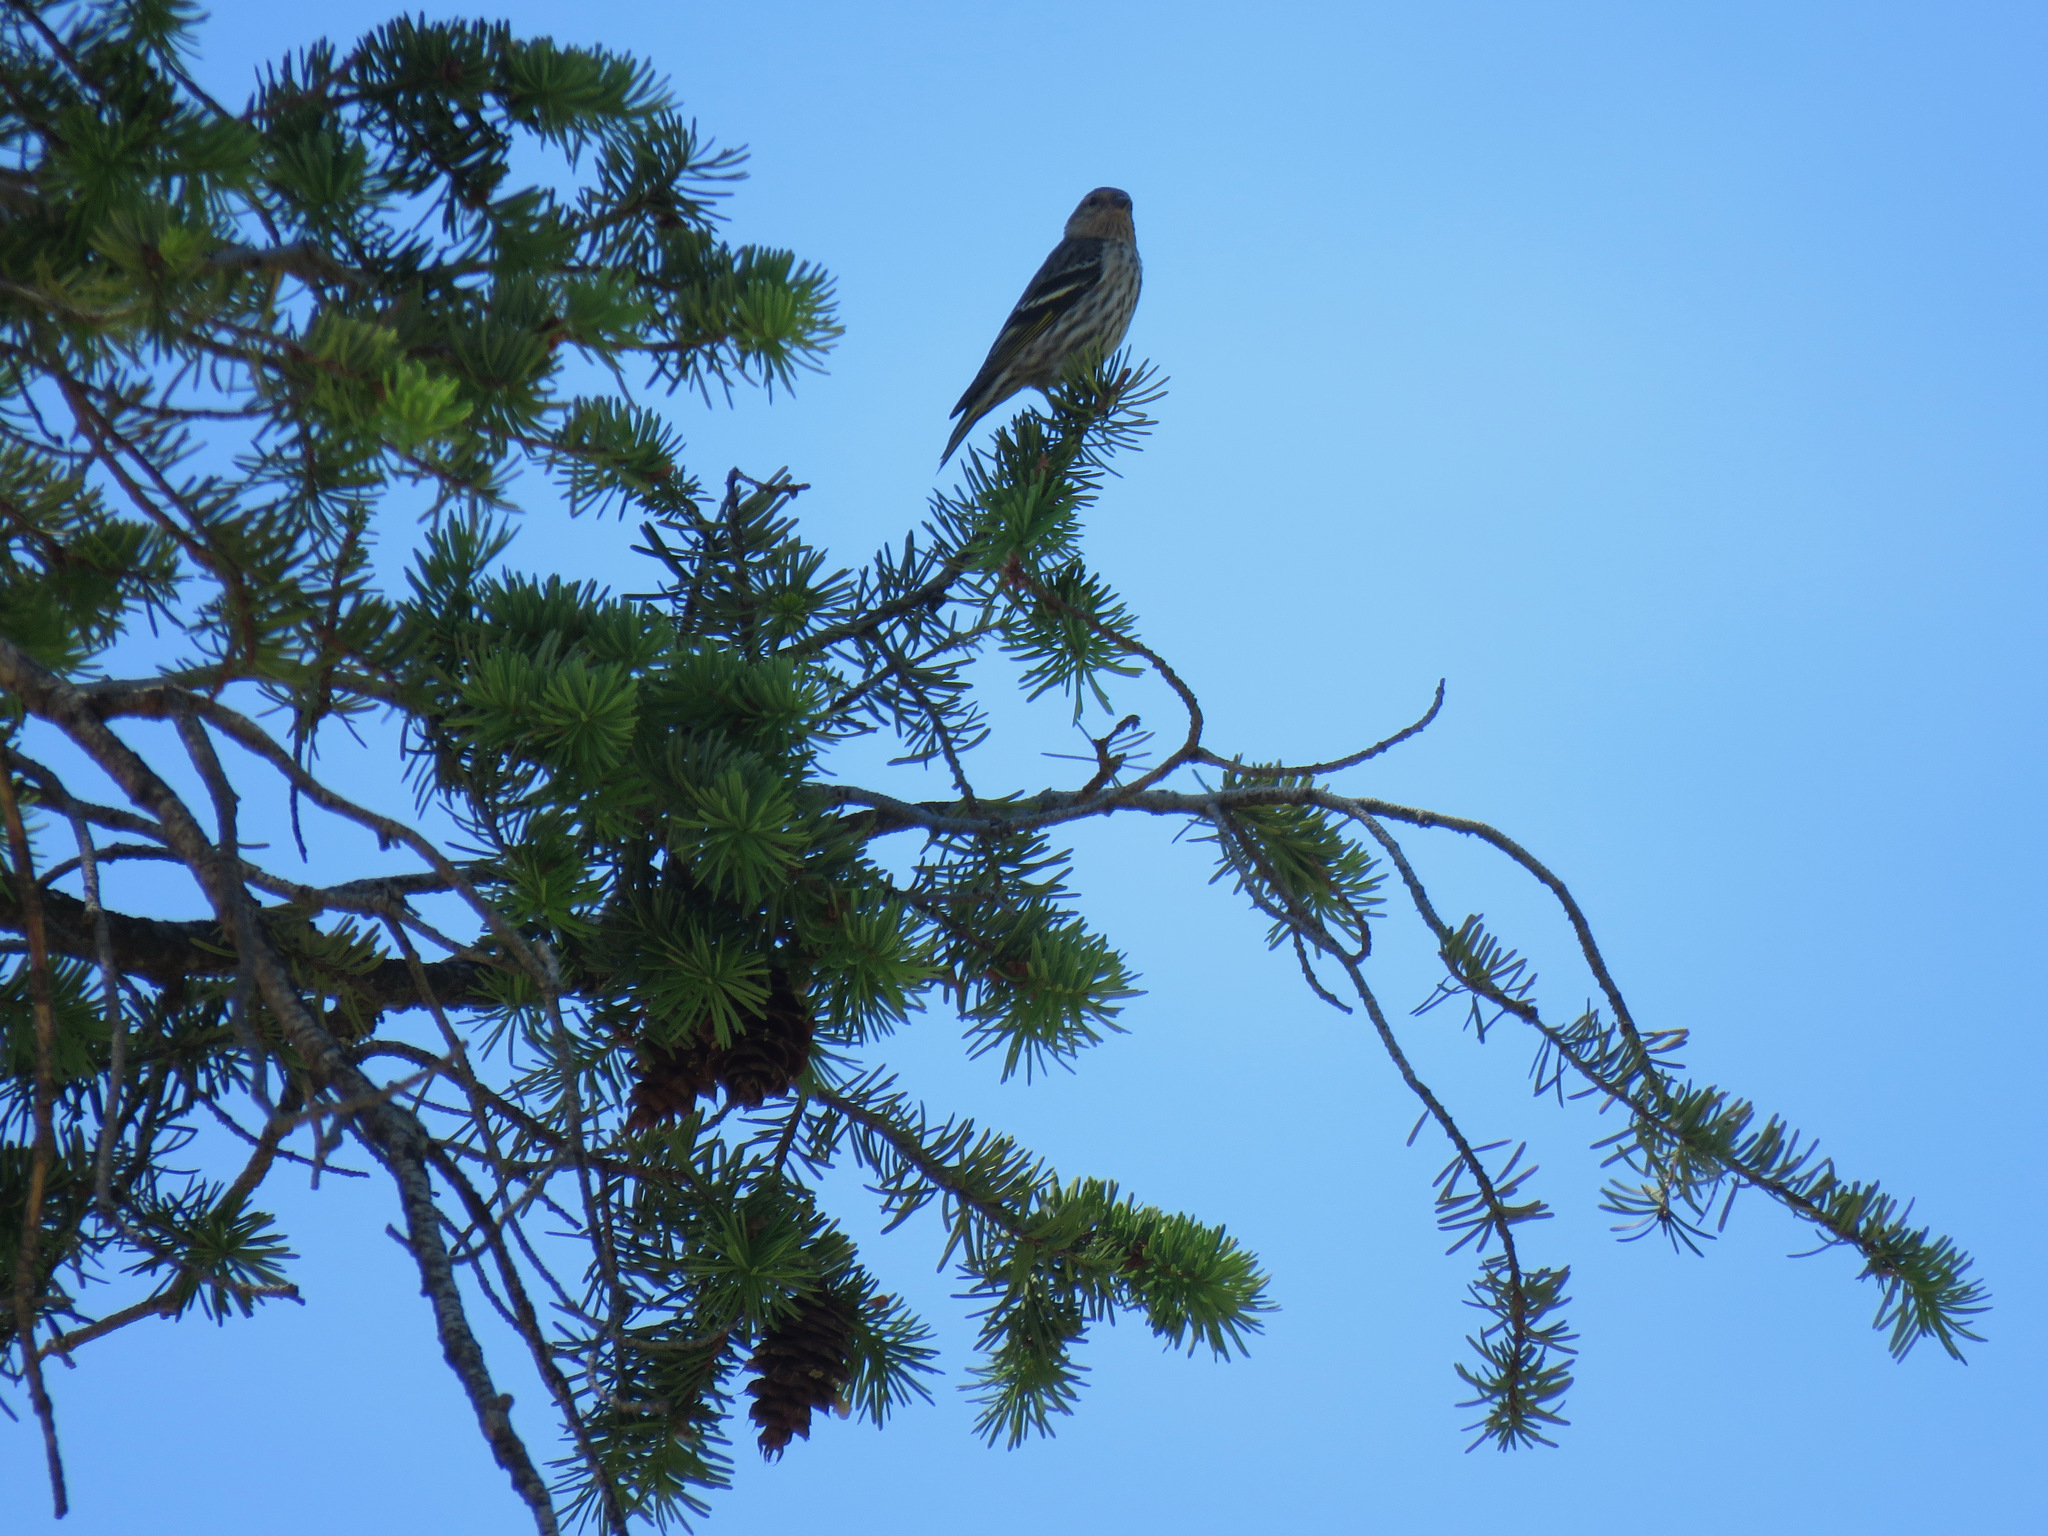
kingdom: Animalia
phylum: Chordata
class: Aves
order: Passeriformes
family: Fringillidae
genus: Spinus
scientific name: Spinus pinus
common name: Pine siskin
